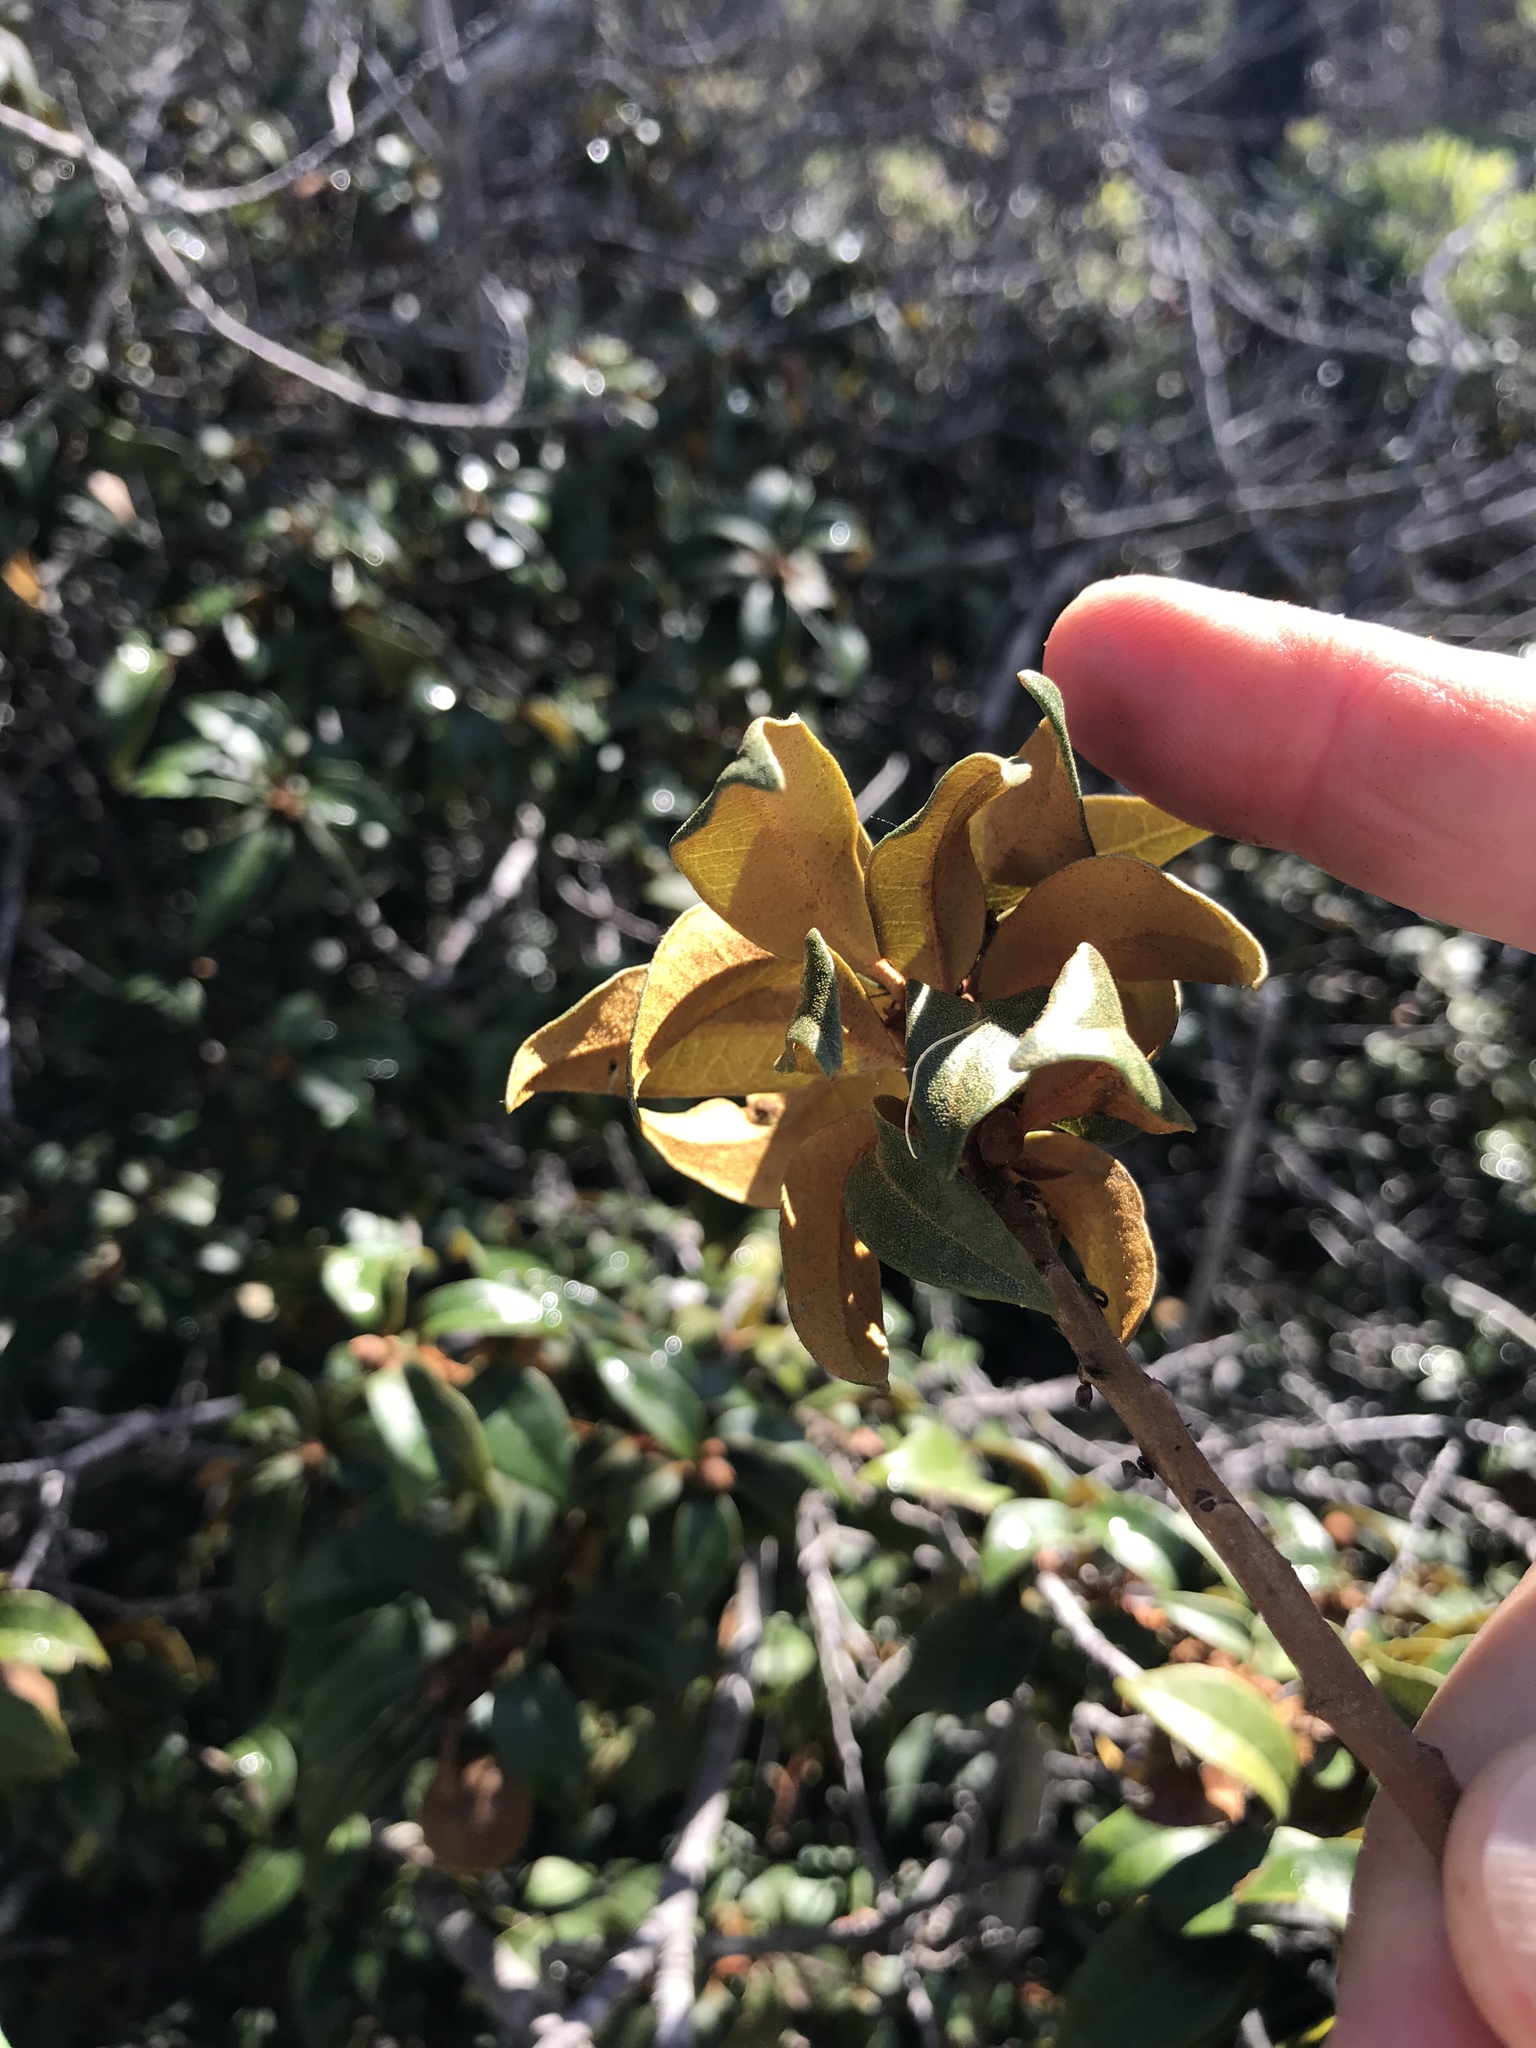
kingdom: Plantae
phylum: Tracheophyta
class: Magnoliopsida
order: Fagales
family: Fagaceae
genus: Chrysolepis
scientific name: Chrysolepis chrysophylla
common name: Giant chinquapin
